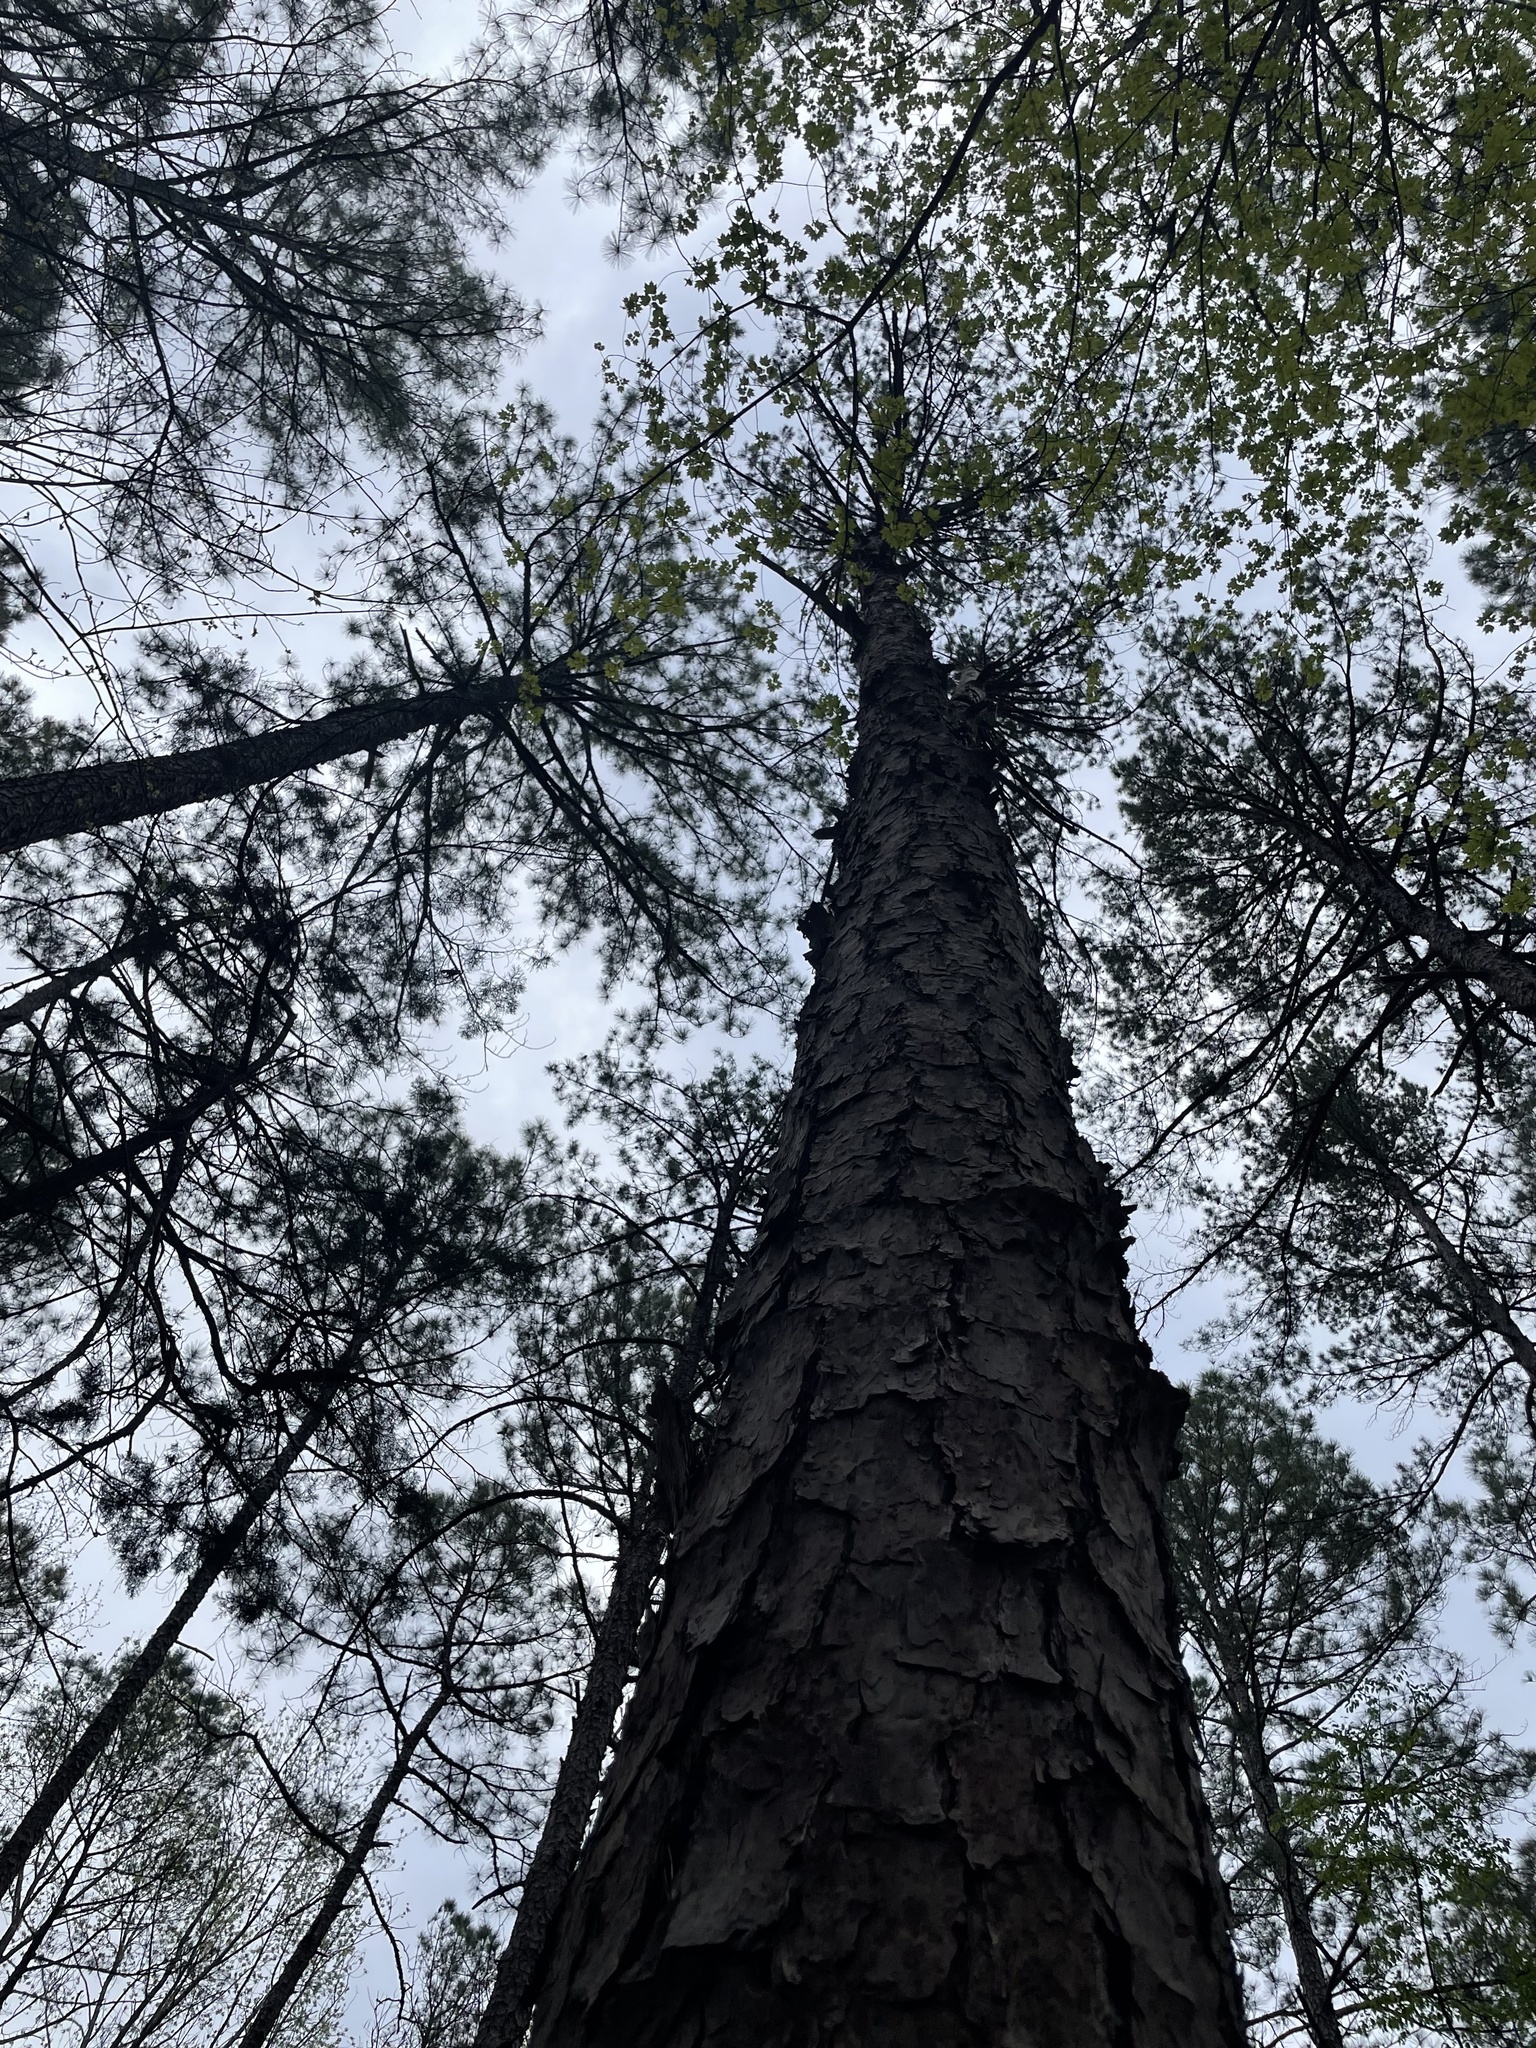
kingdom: Plantae
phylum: Tracheophyta
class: Pinopsida
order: Pinales
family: Pinaceae
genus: Pinus
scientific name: Pinus echinata
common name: Shortleaf pine
